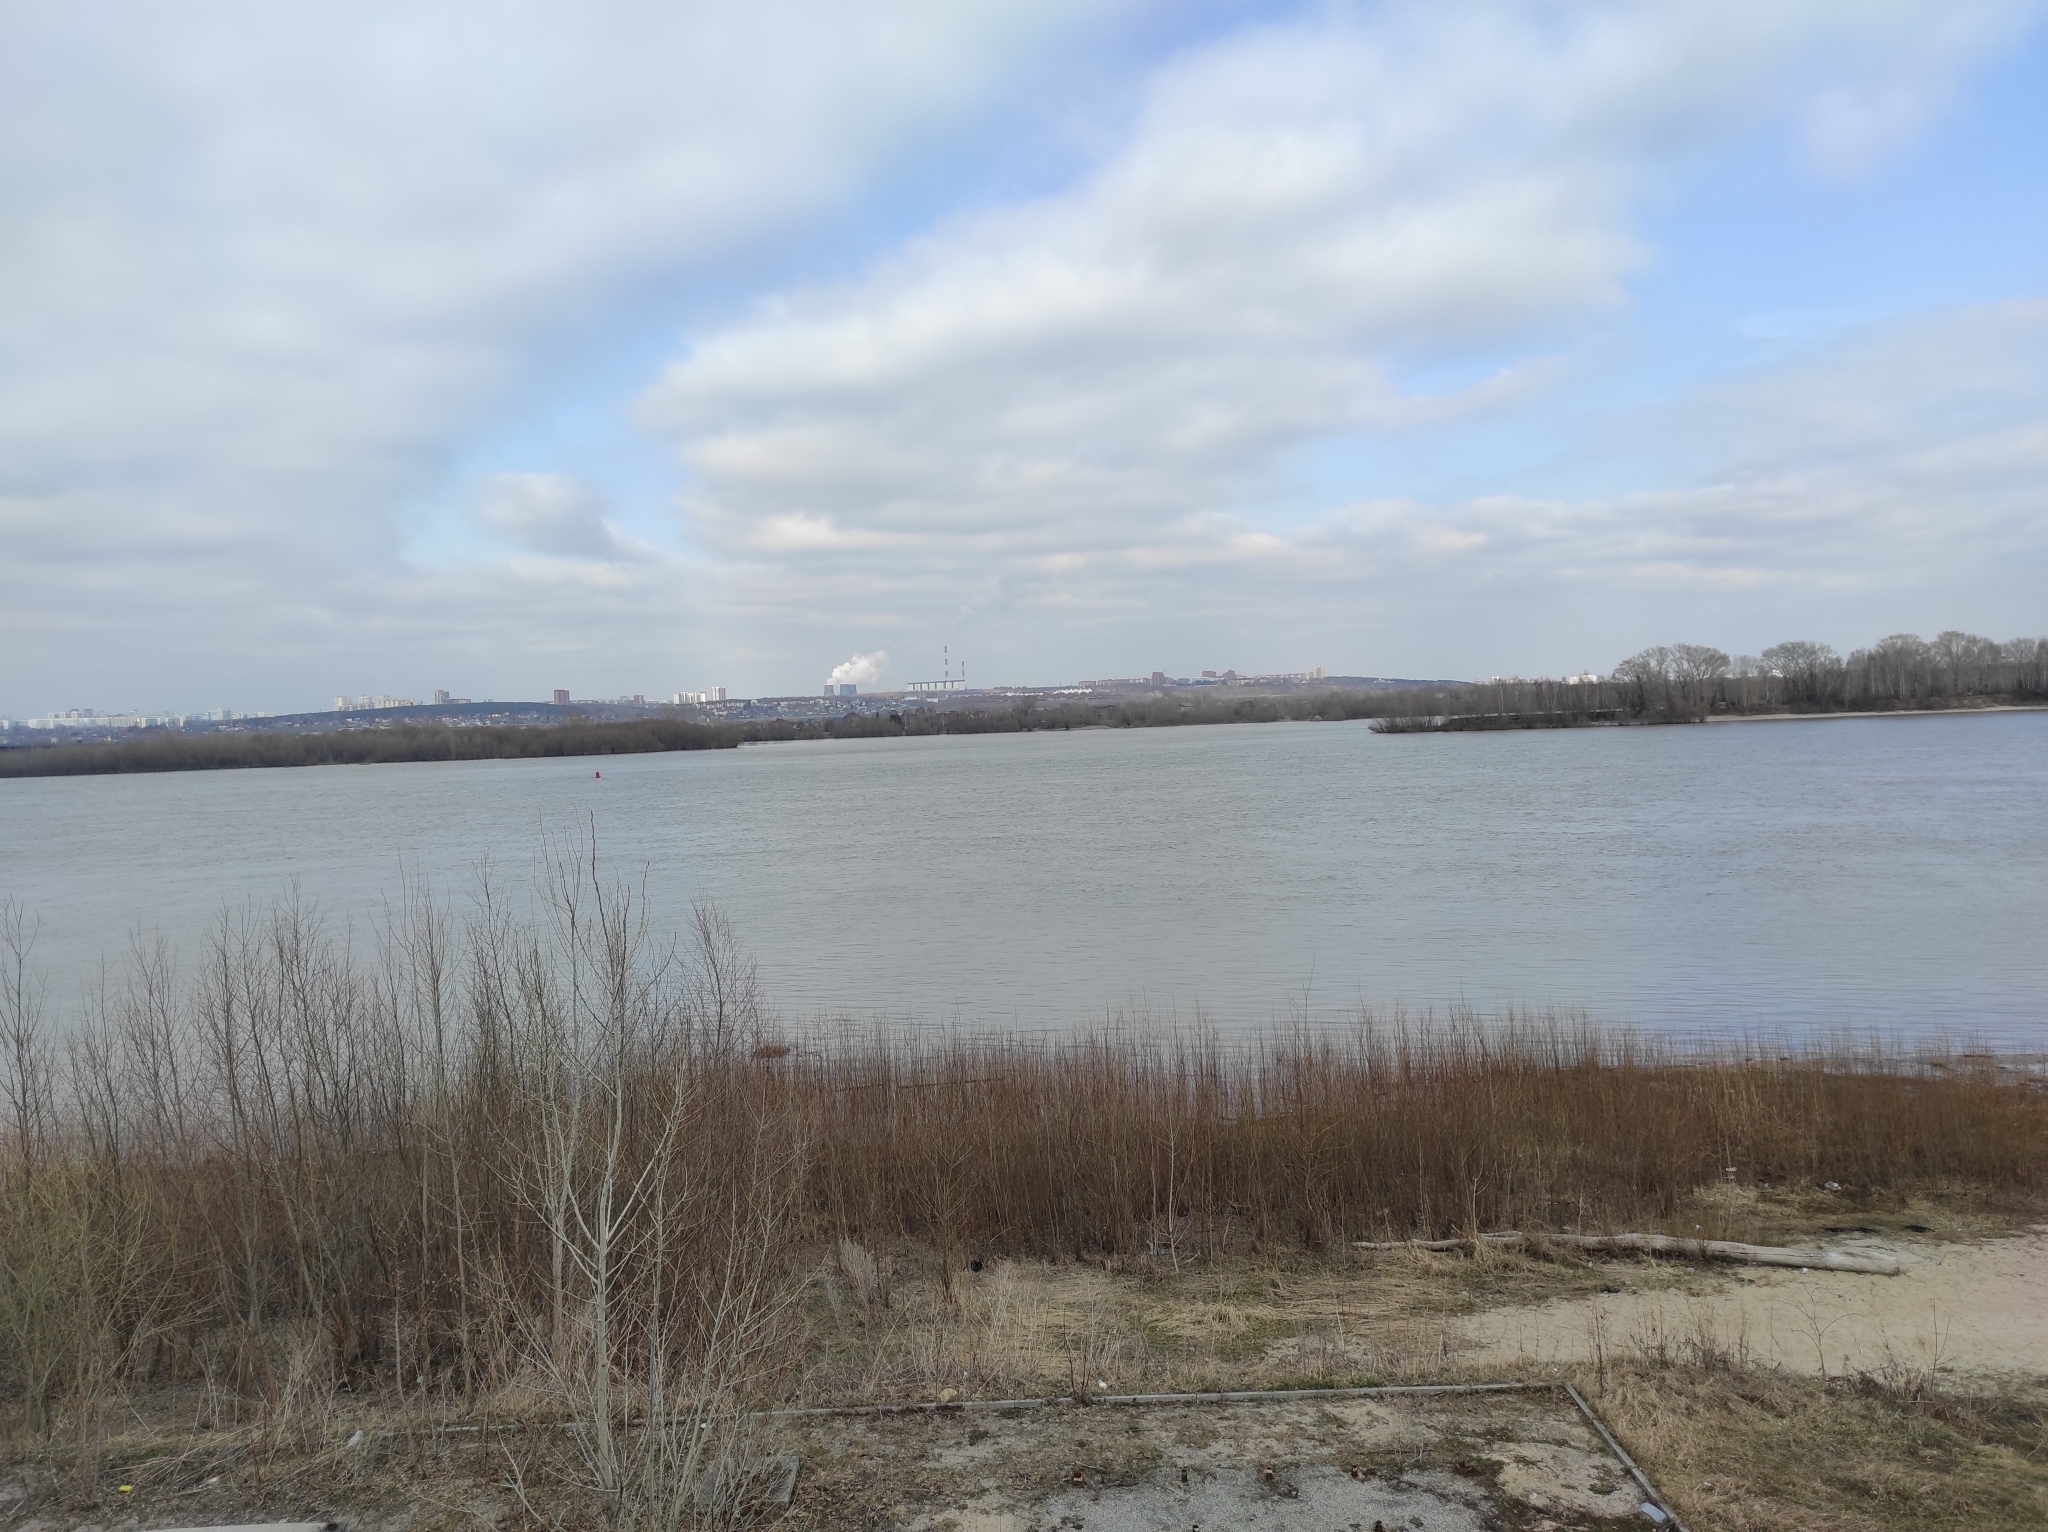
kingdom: Plantae
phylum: Tracheophyta
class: Magnoliopsida
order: Malpighiales
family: Salicaceae
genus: Populus
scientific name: Populus tremula
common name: European aspen
